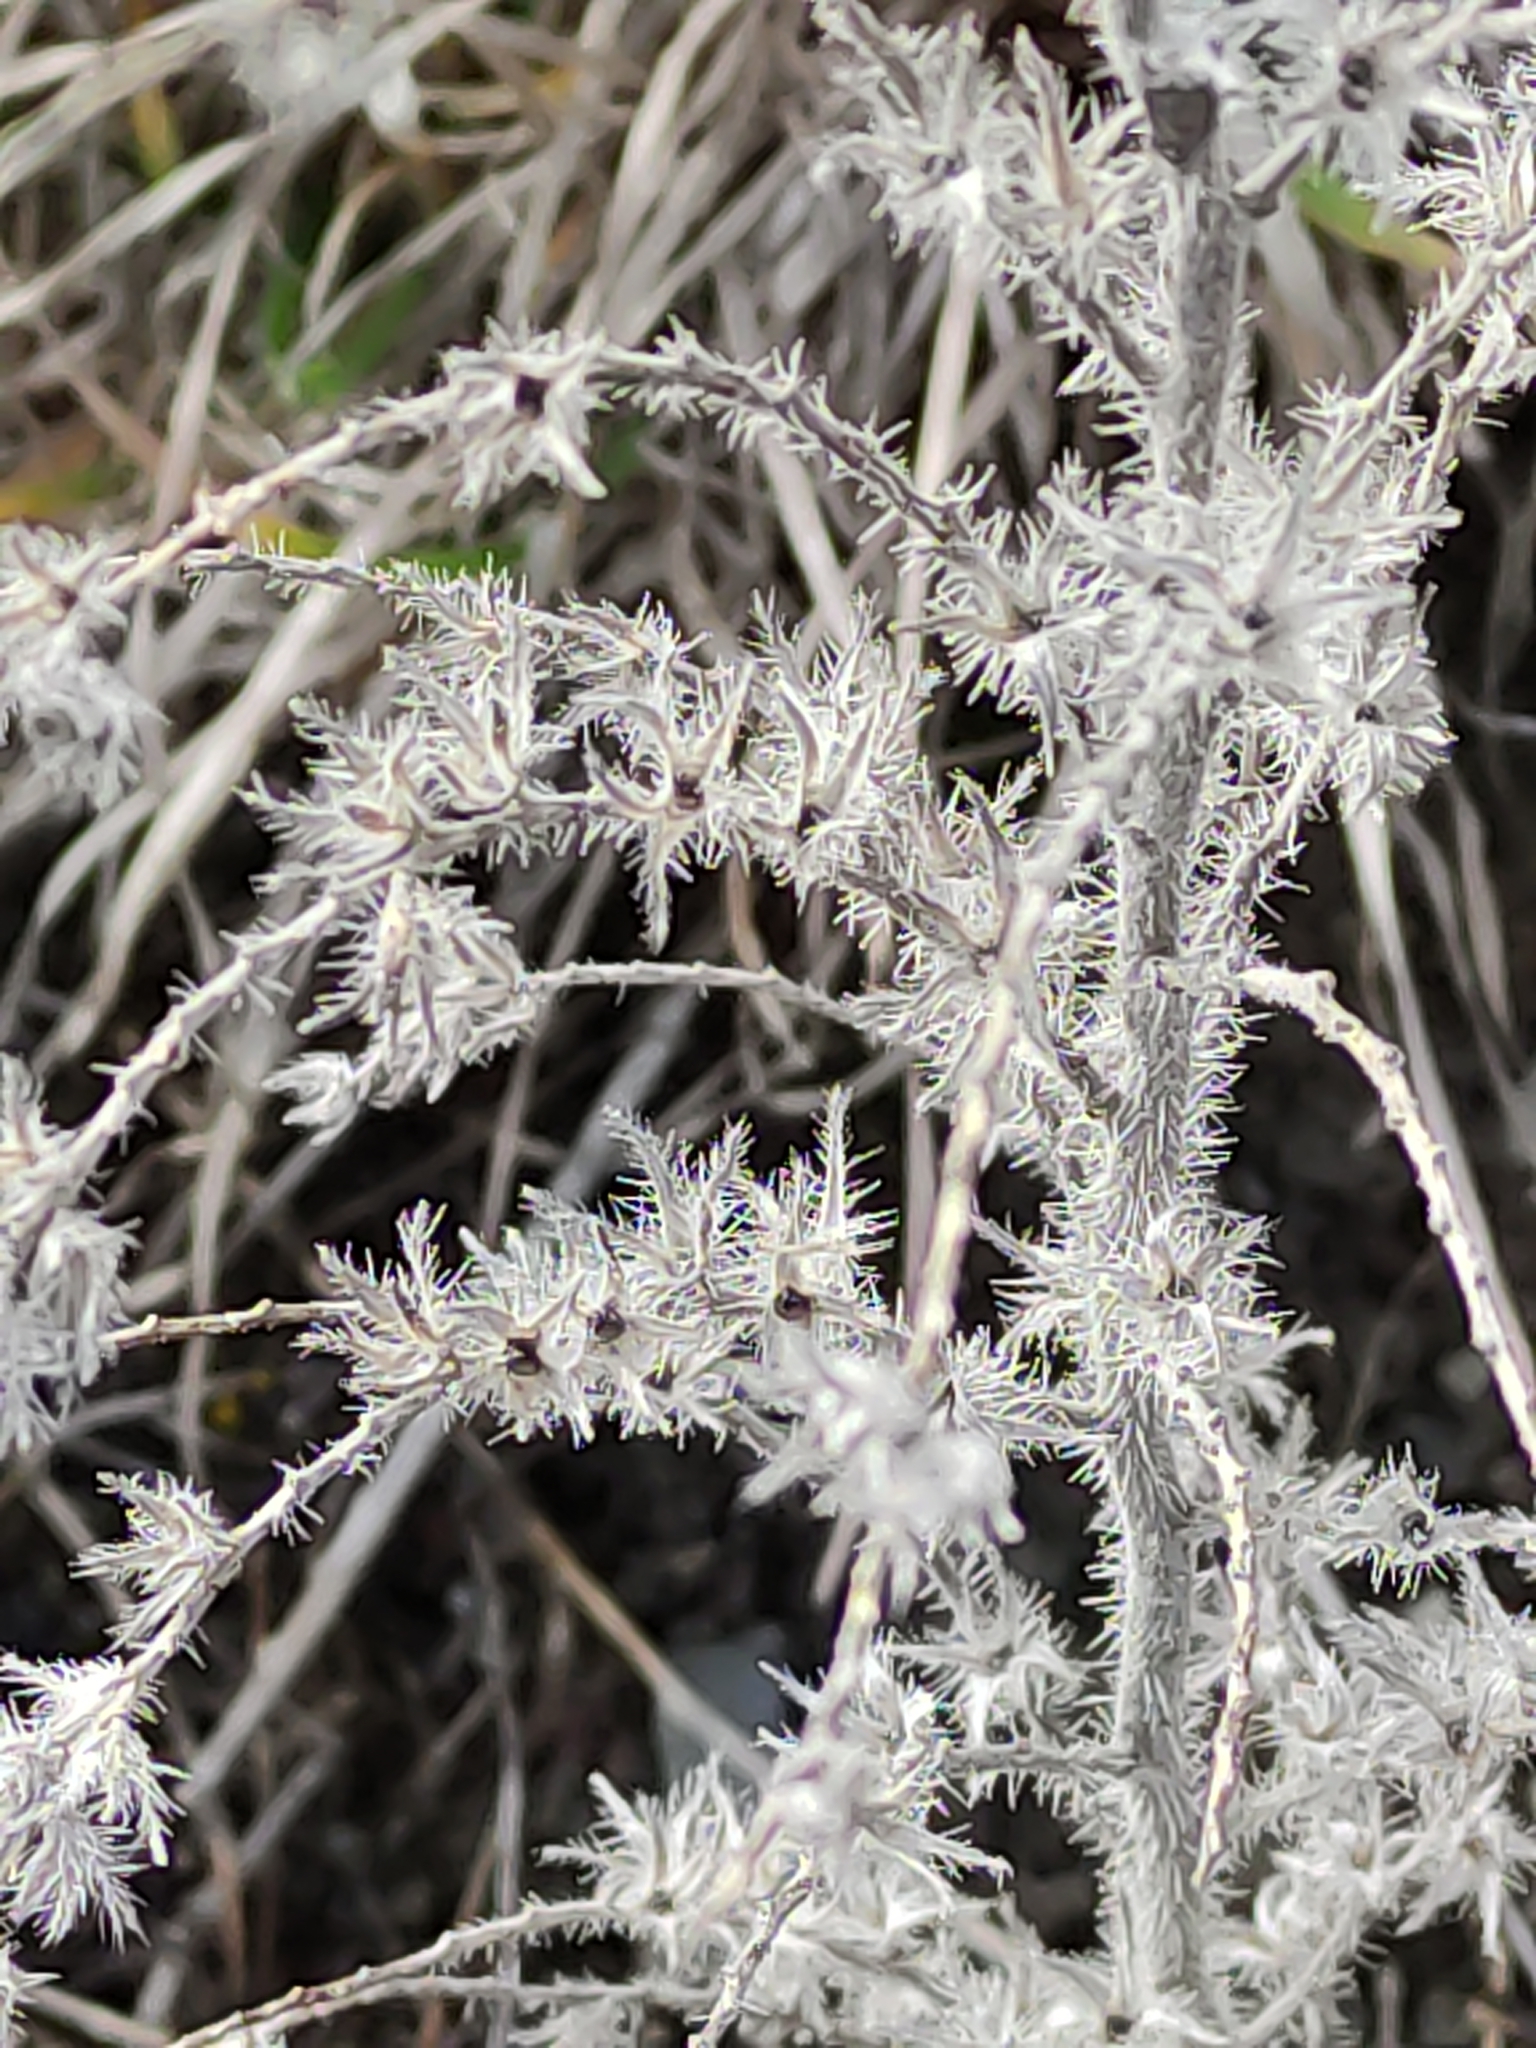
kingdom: Plantae
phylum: Tracheophyta
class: Magnoliopsida
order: Boraginales
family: Boraginaceae
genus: Echium
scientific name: Echium vulgare
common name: Common viper's bugloss
